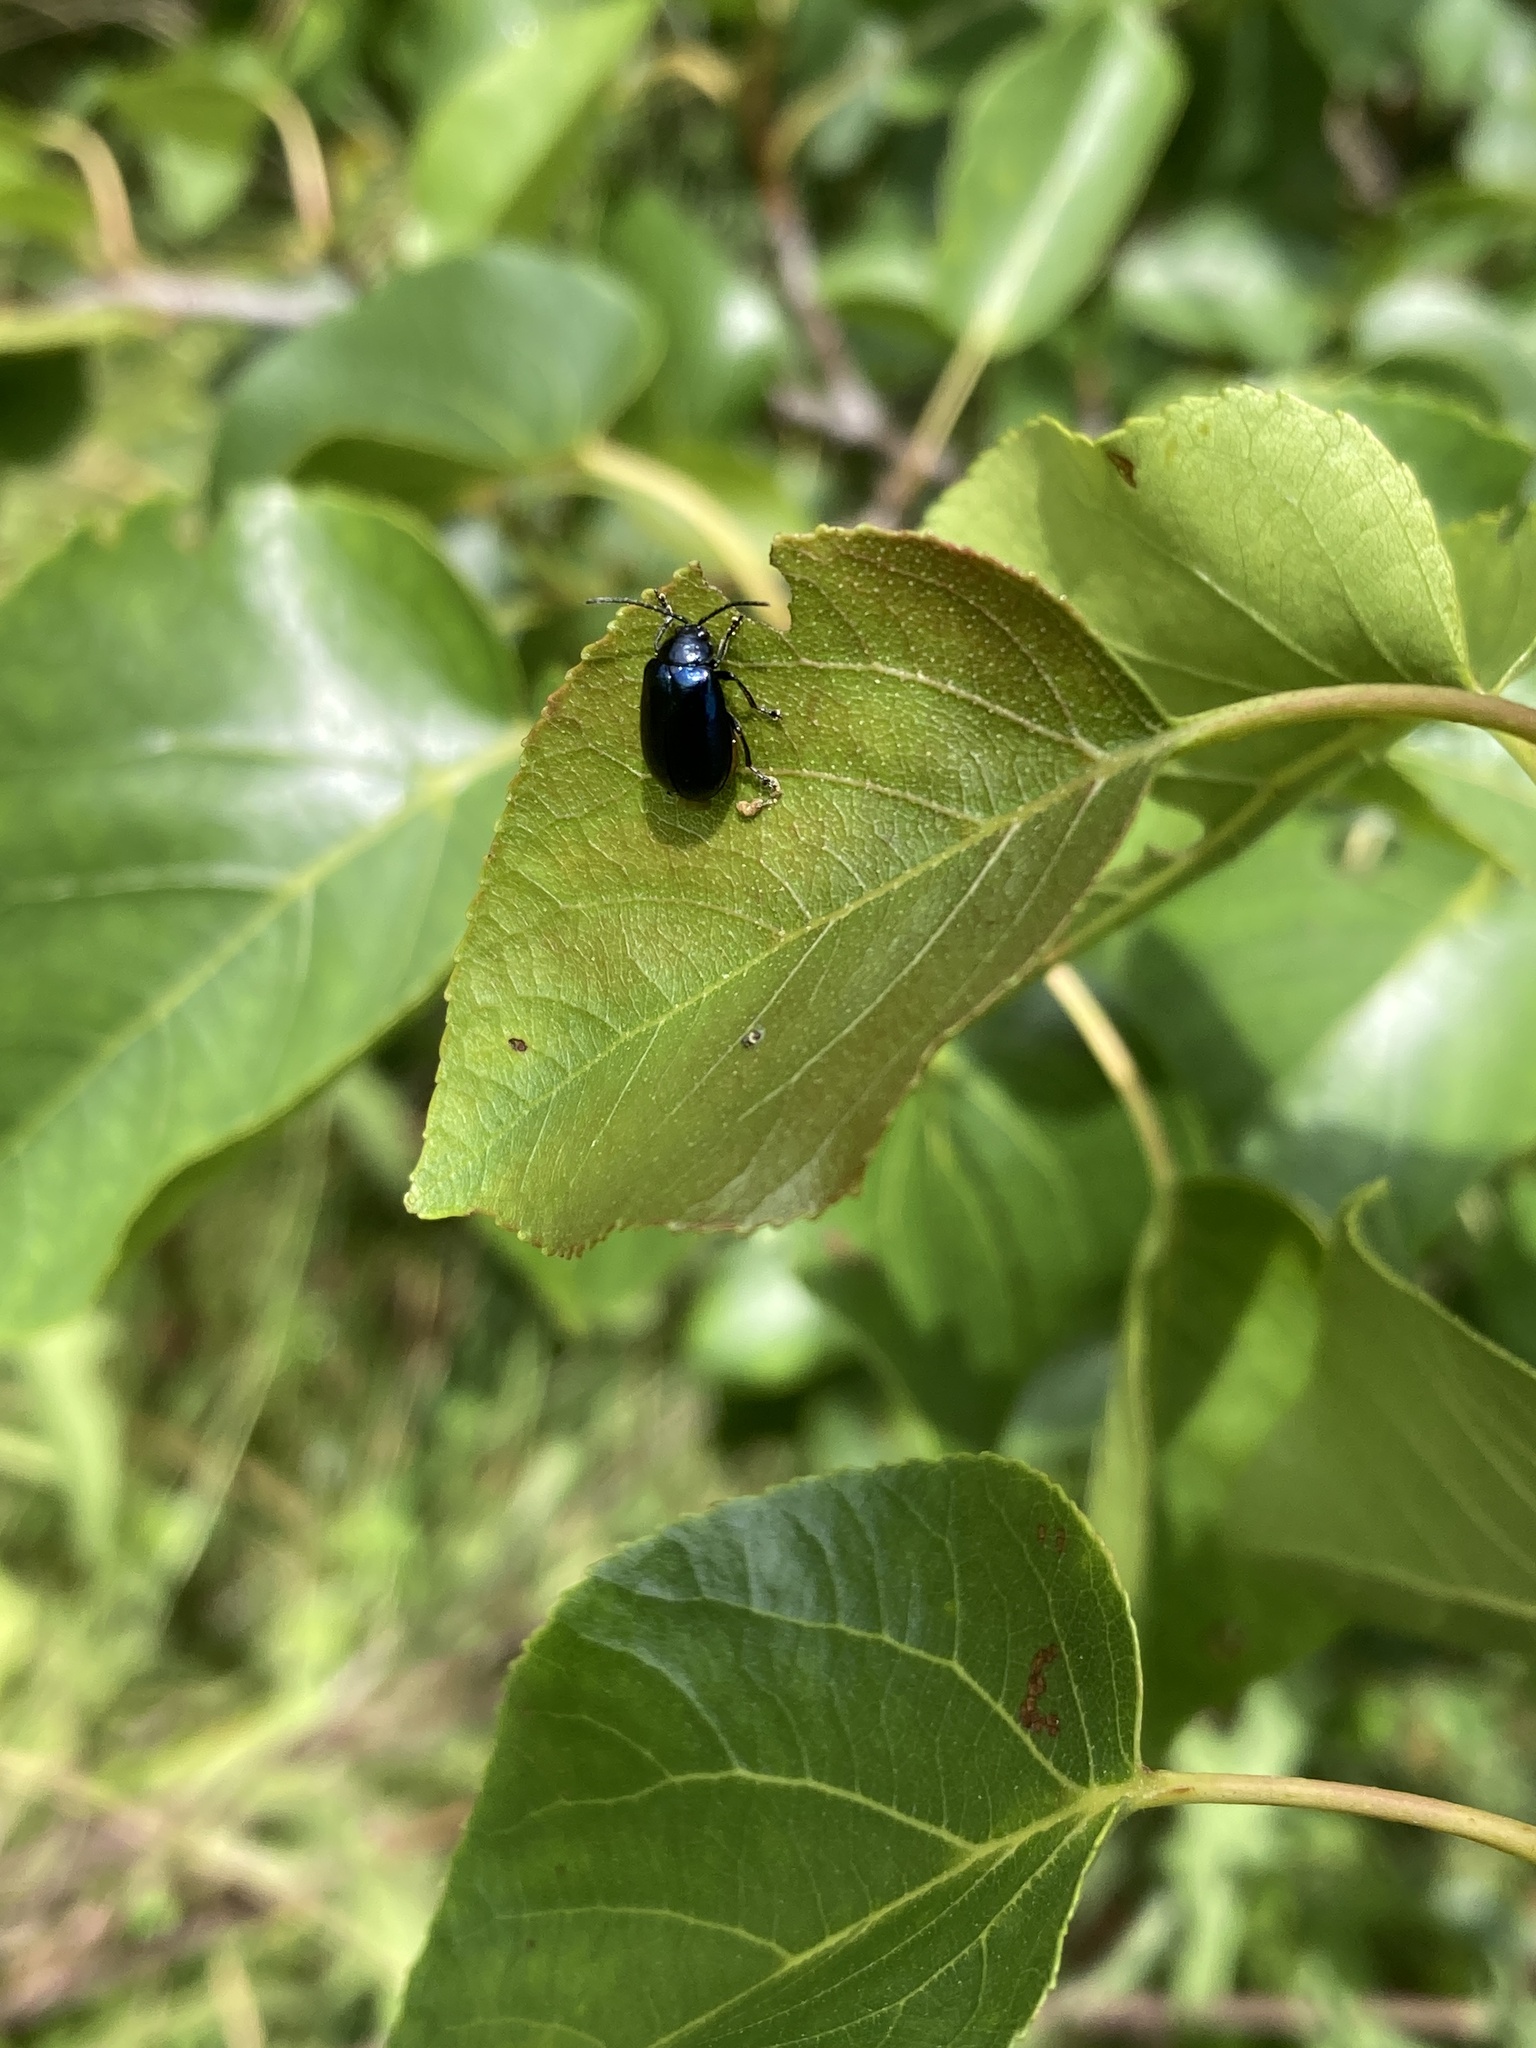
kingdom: Animalia
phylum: Arthropoda
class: Insecta
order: Coleoptera
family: Chrysomelidae
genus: Agelastica
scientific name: Agelastica alni
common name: Alder leaf beetle
